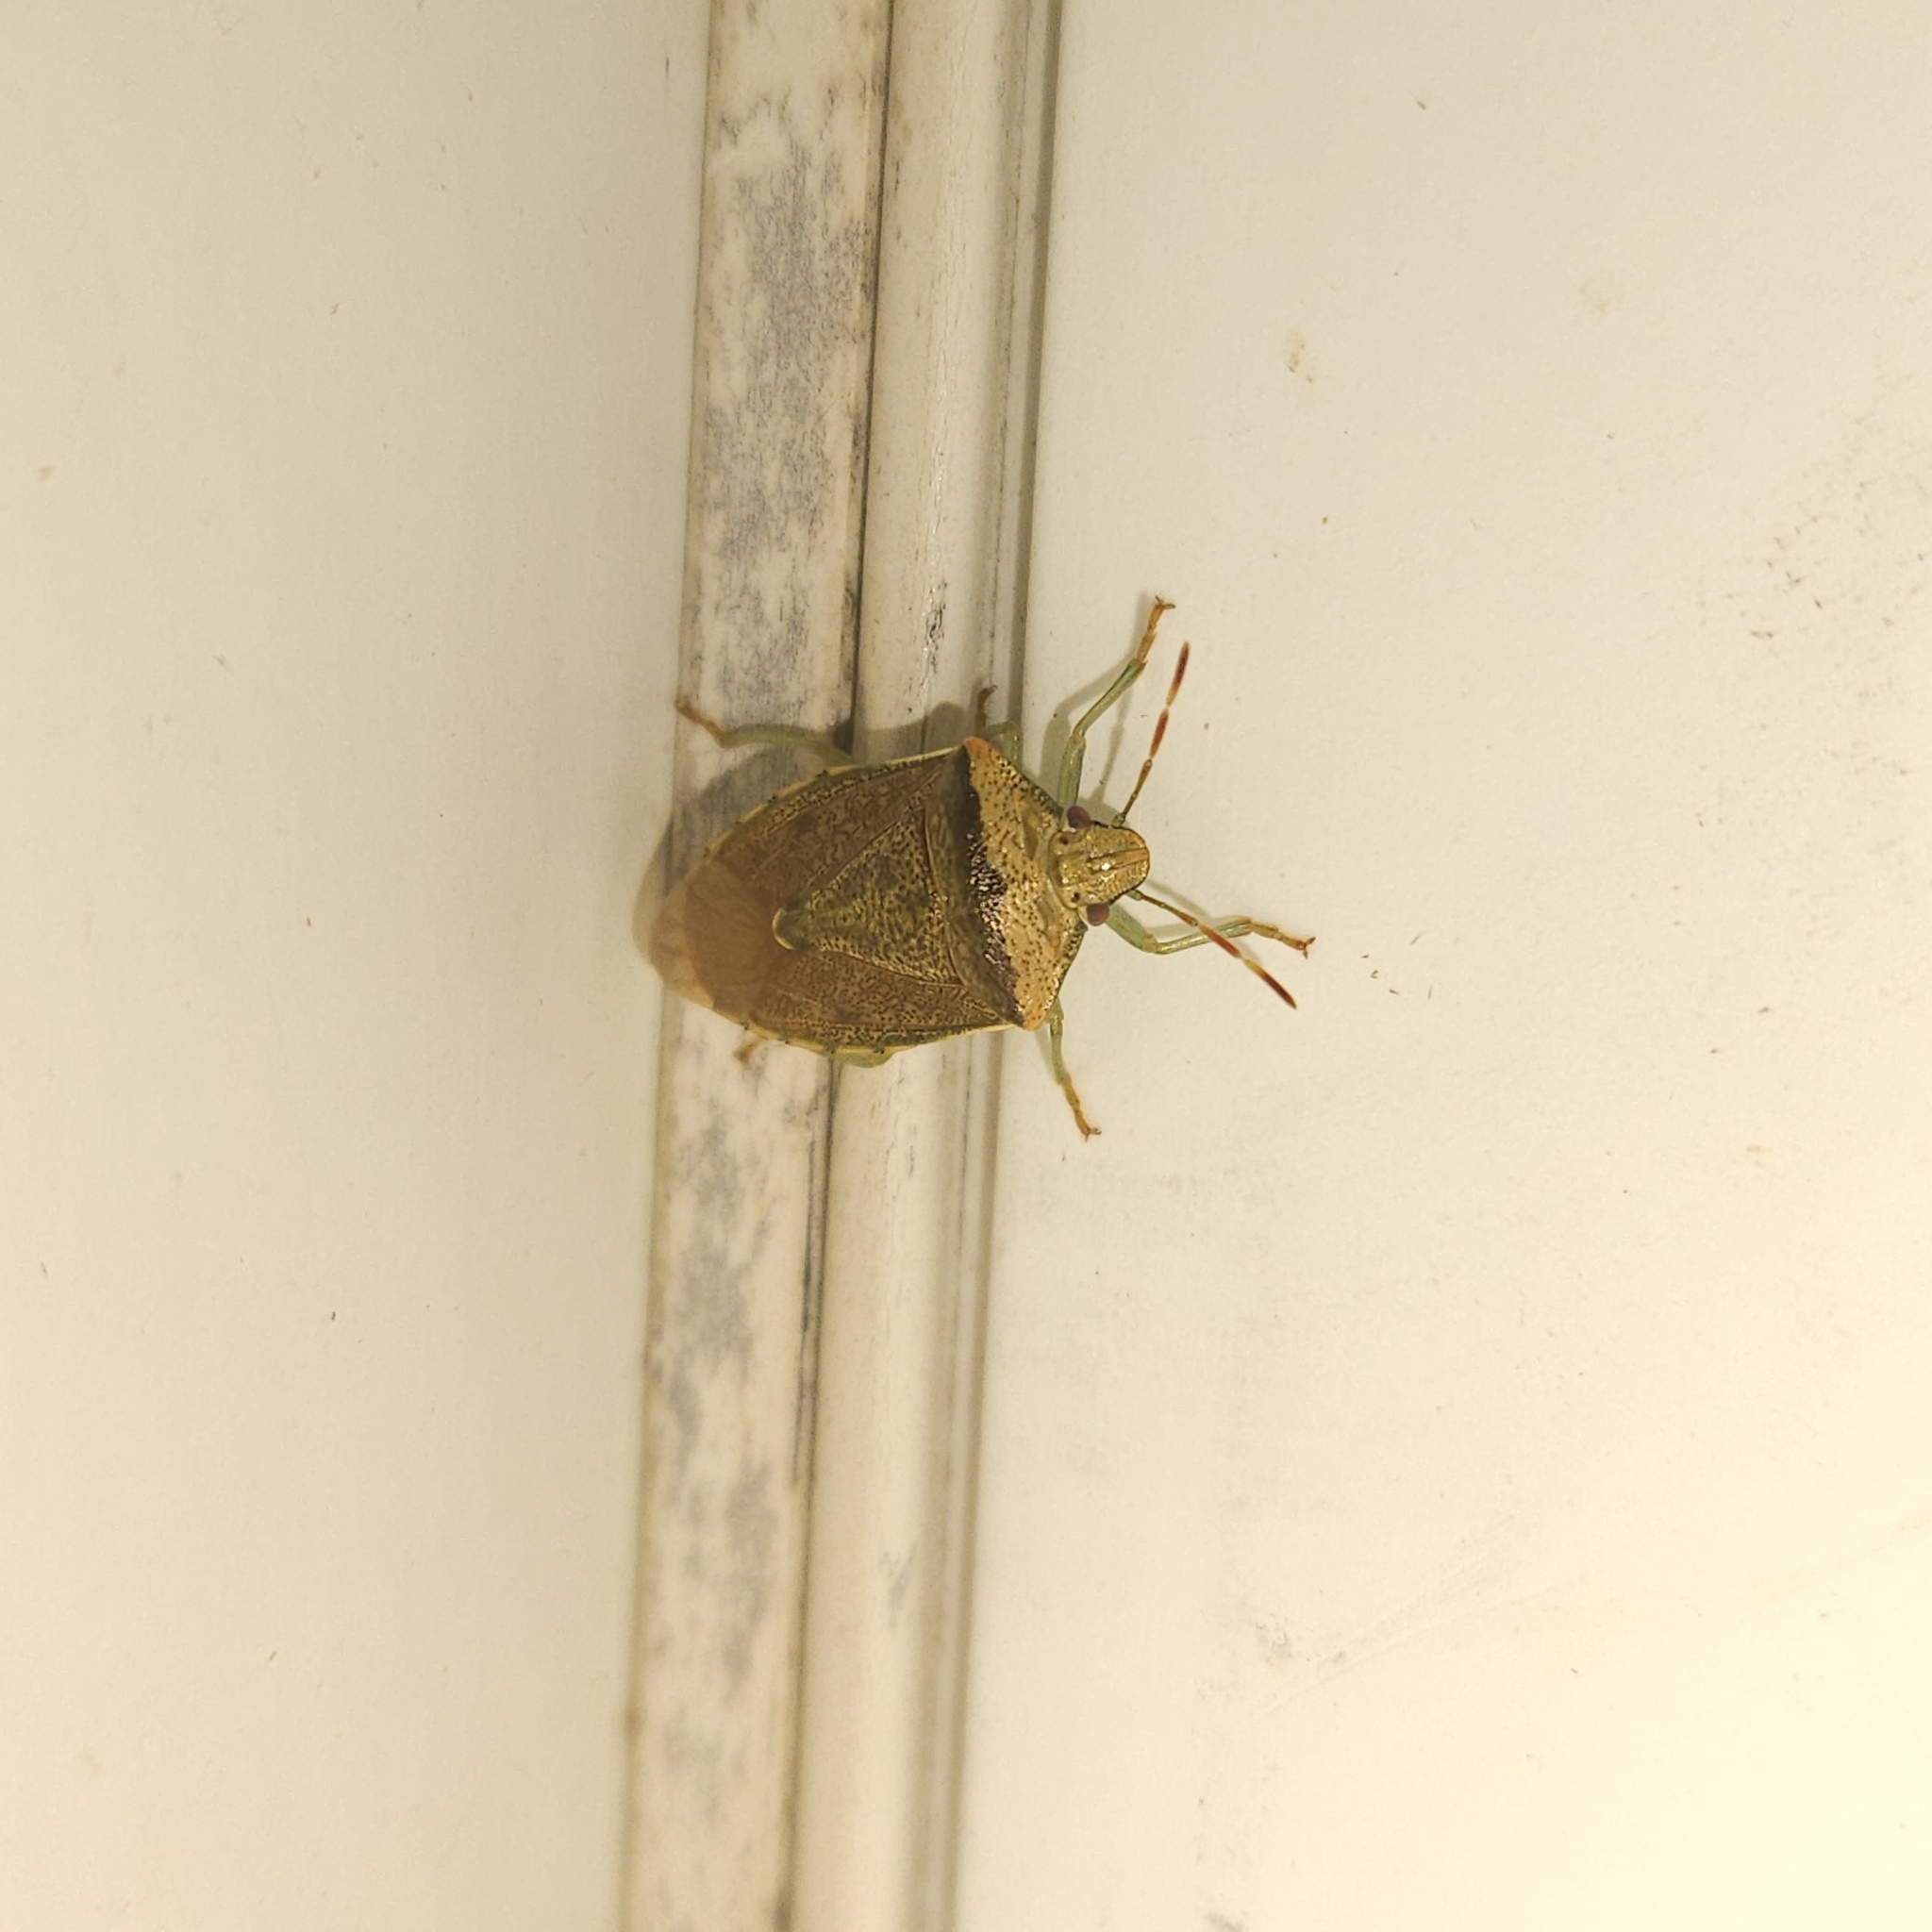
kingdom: Animalia
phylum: Arthropoda
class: Insecta
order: Hemiptera
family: Pentatomidae
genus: Banasa
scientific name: Banasa calva
